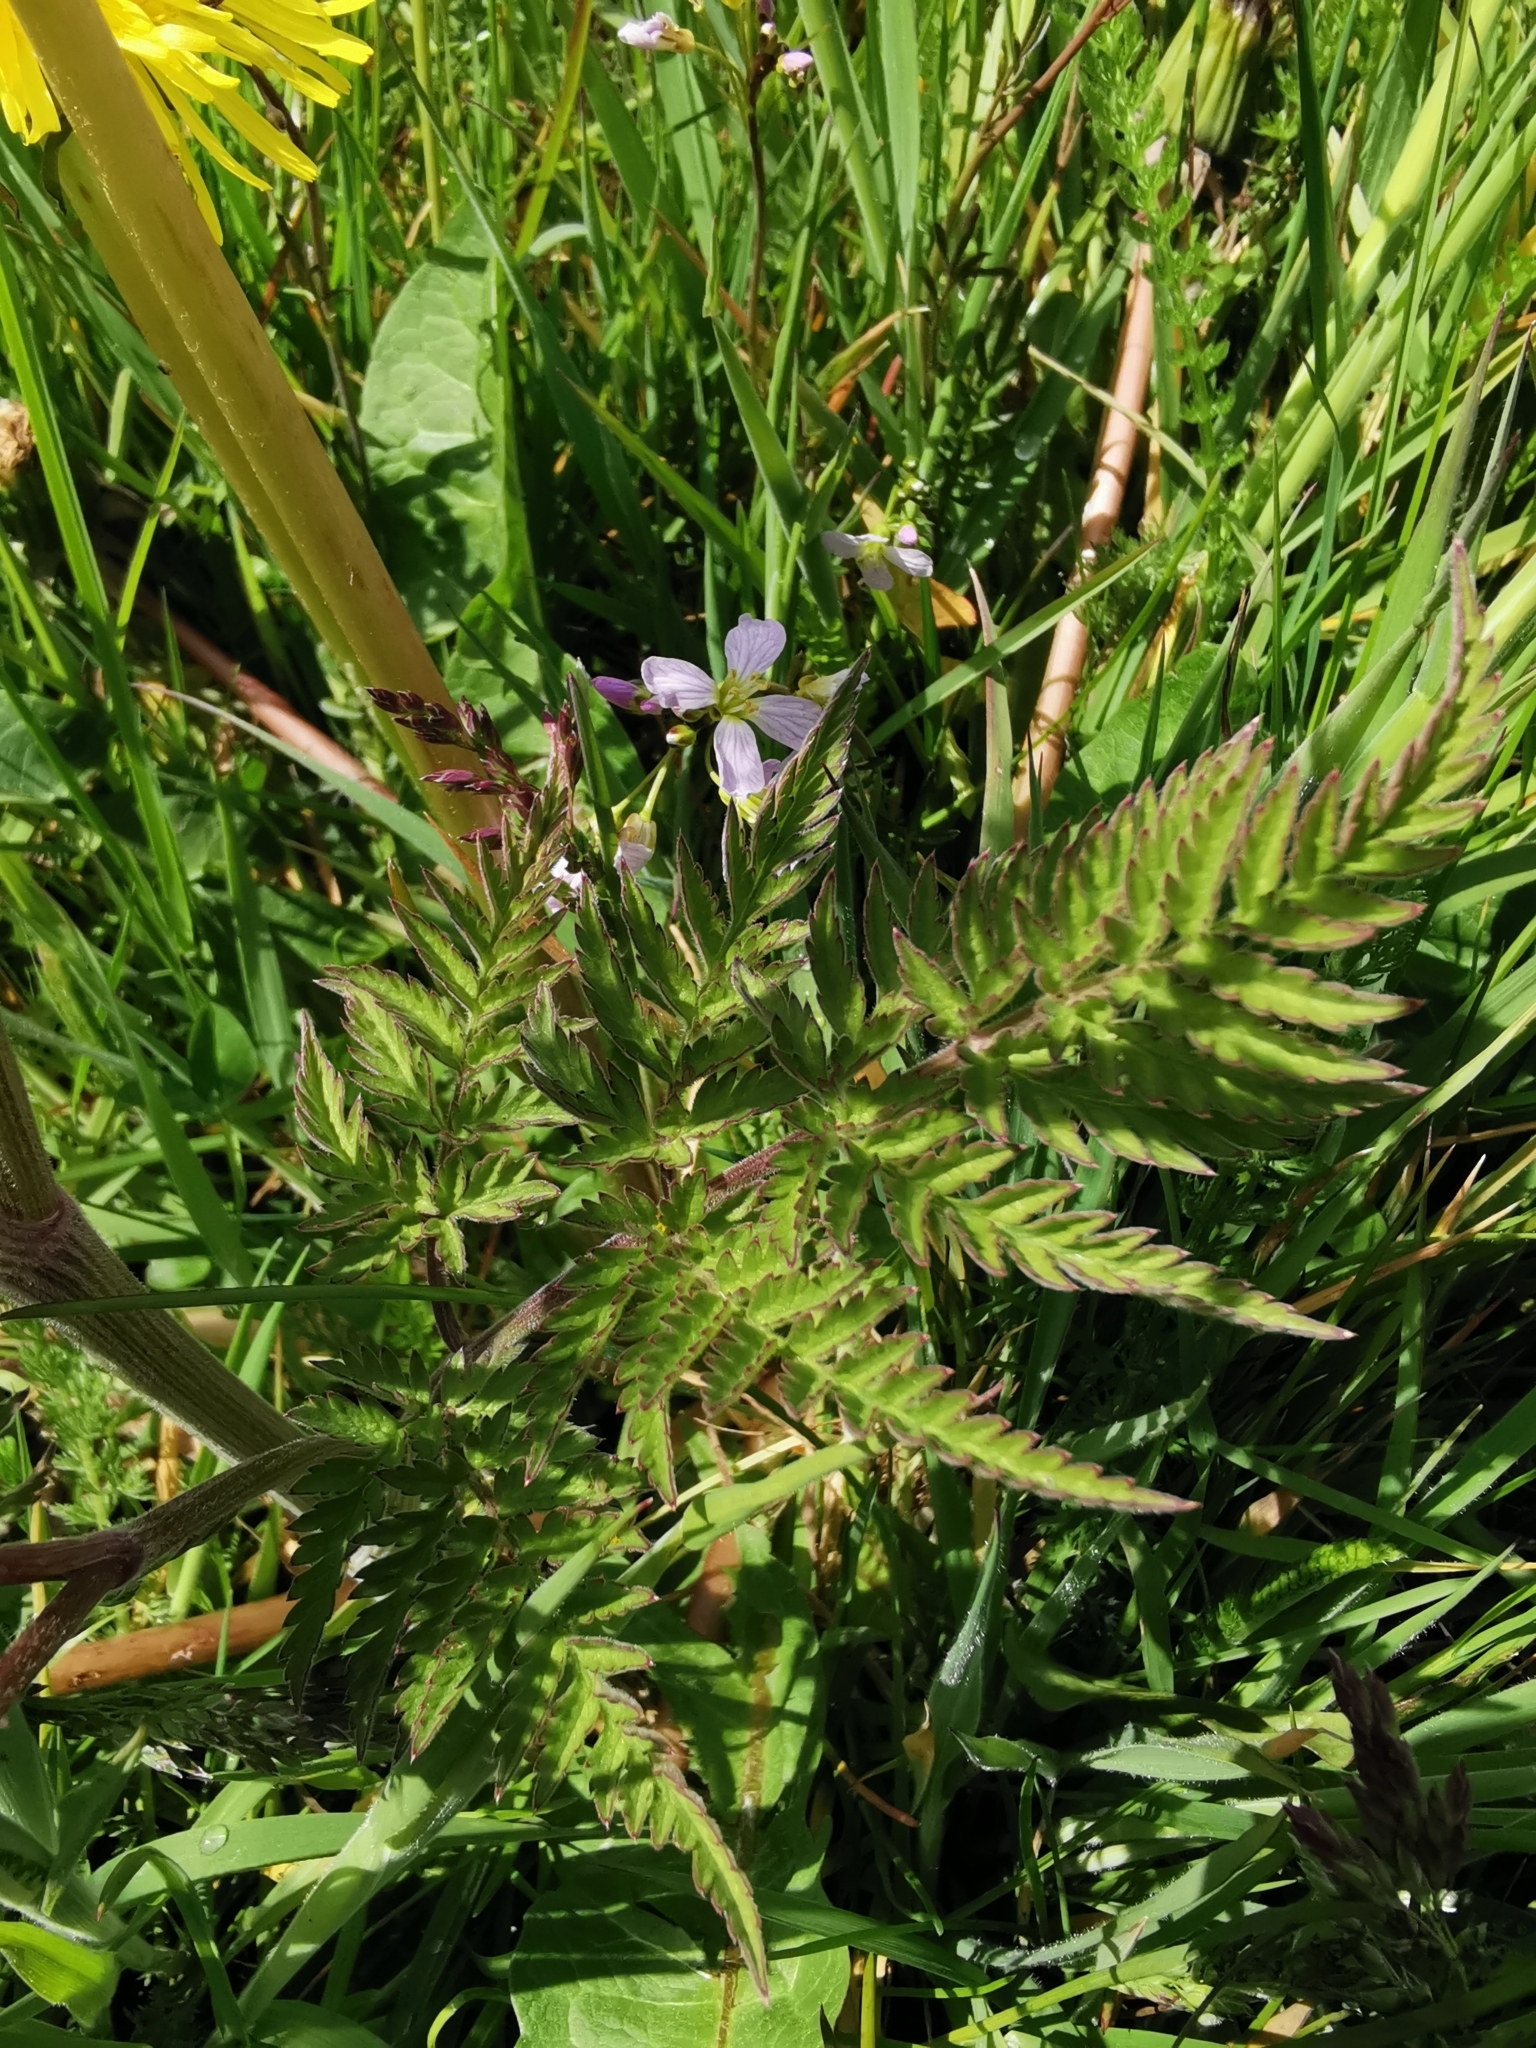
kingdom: Plantae
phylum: Tracheophyta
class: Magnoliopsida
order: Apiales
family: Apiaceae
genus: Anthriscus
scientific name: Anthriscus sylvestris
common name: Cow parsley
